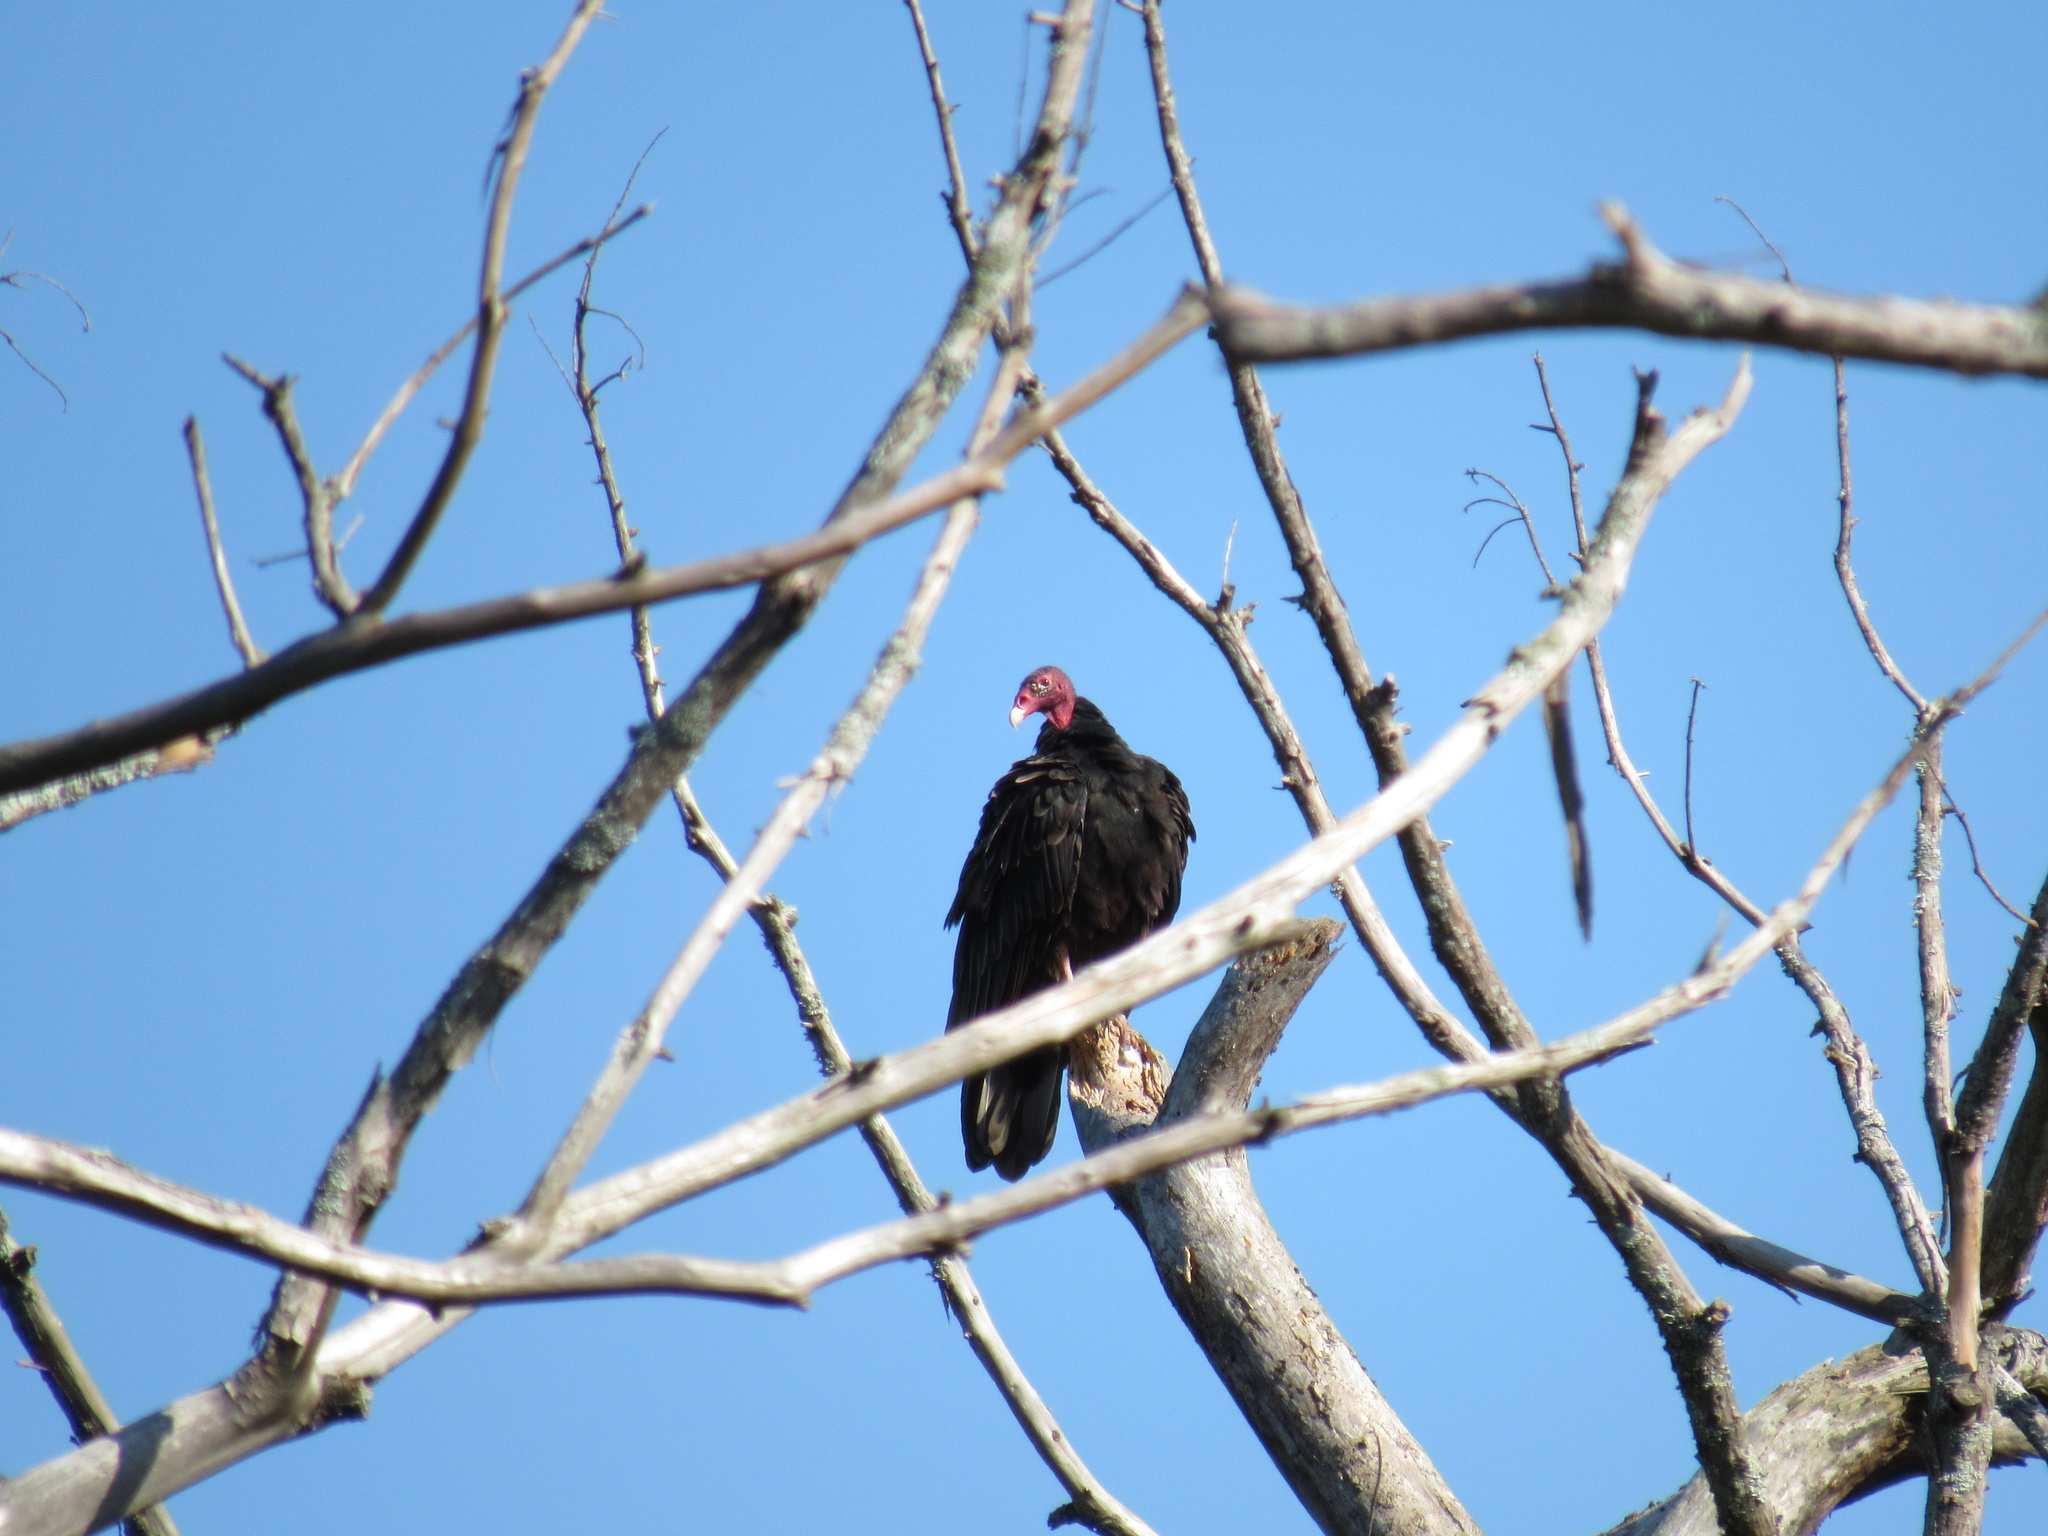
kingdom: Animalia
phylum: Chordata
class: Aves
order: Accipitriformes
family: Cathartidae
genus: Cathartes
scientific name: Cathartes aura
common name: Turkey vulture
